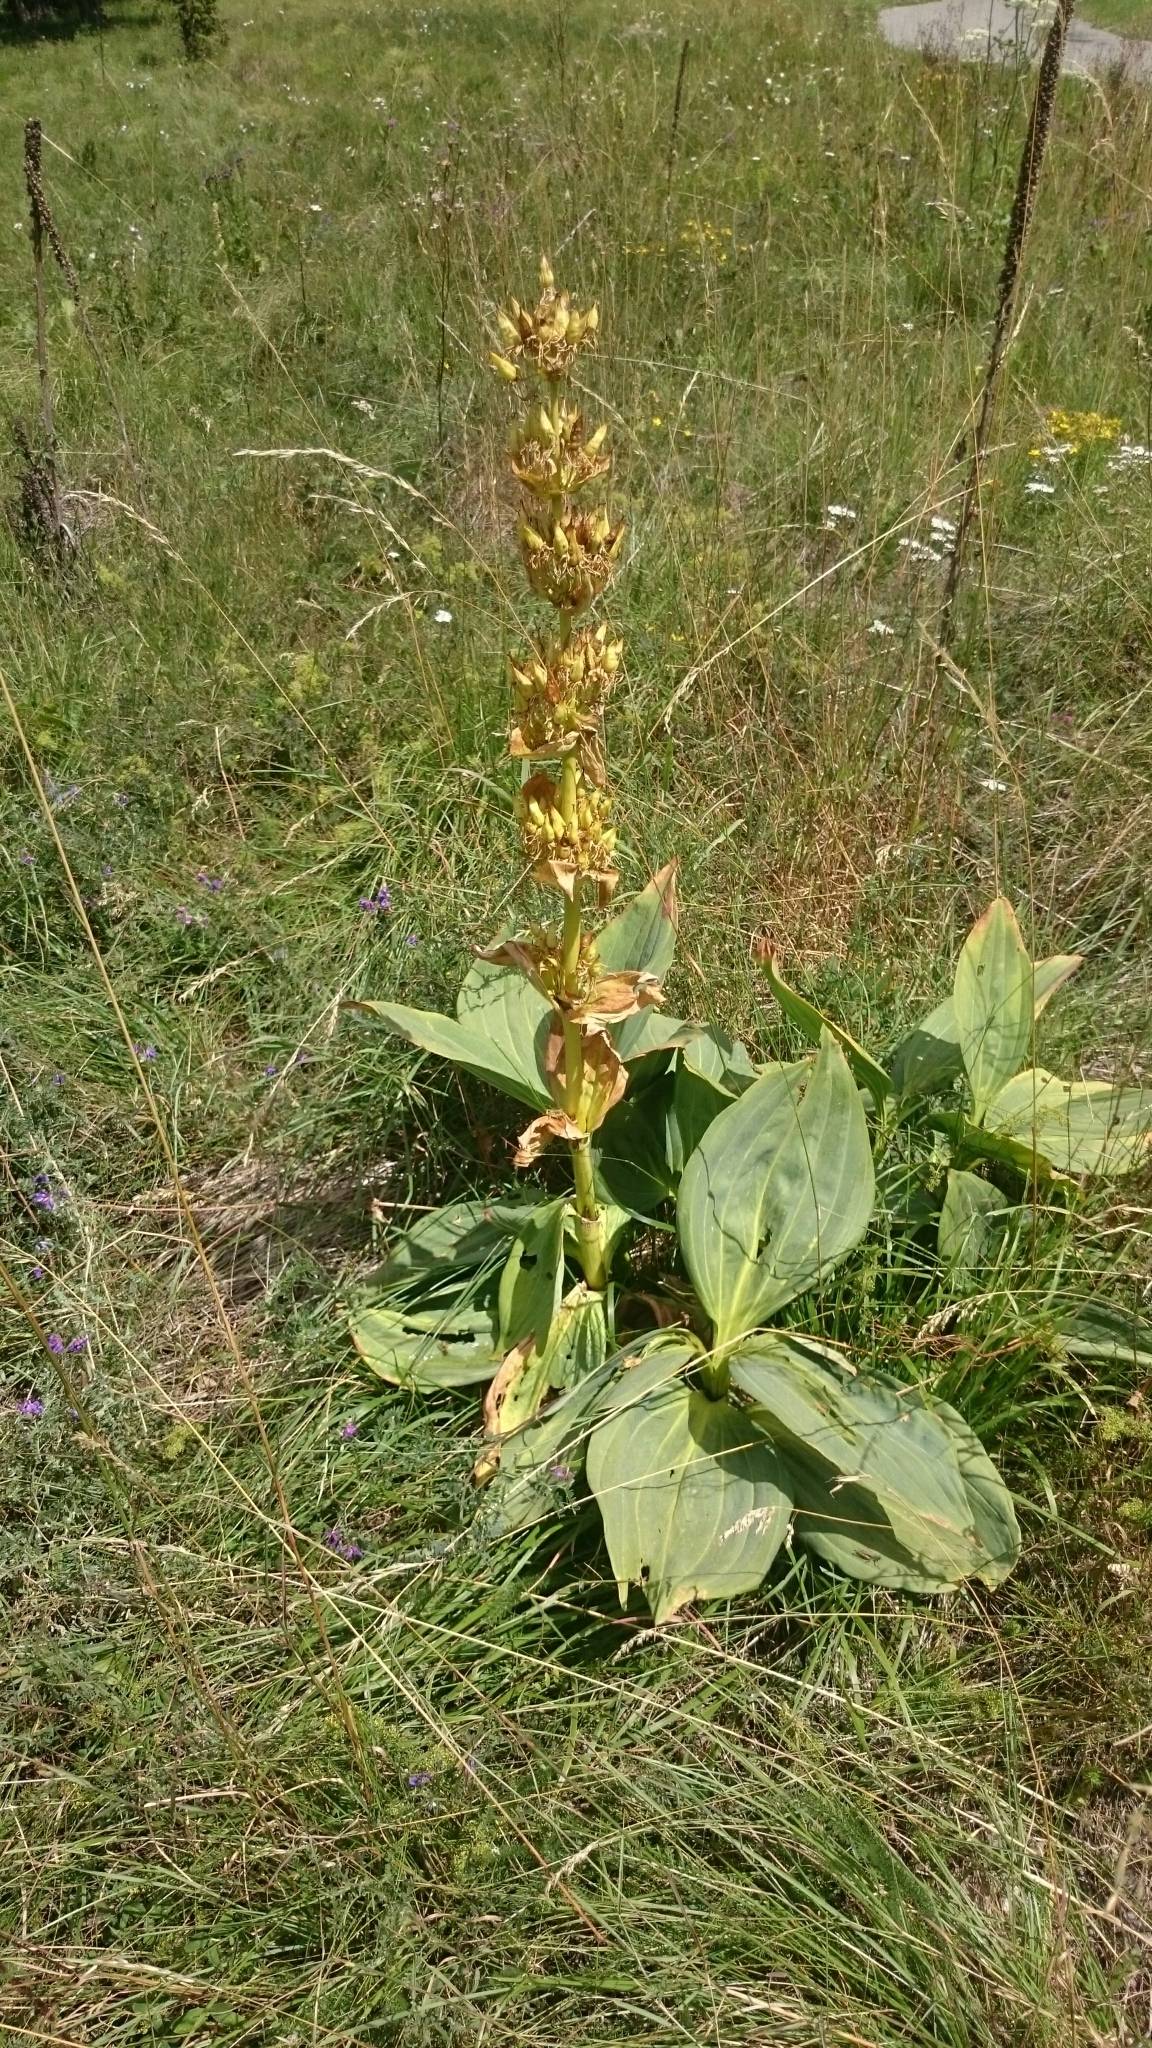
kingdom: Plantae
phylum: Tracheophyta
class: Magnoliopsida
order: Gentianales
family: Gentianaceae
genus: Gentiana
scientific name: Gentiana lutea
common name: Great yellow gentian
